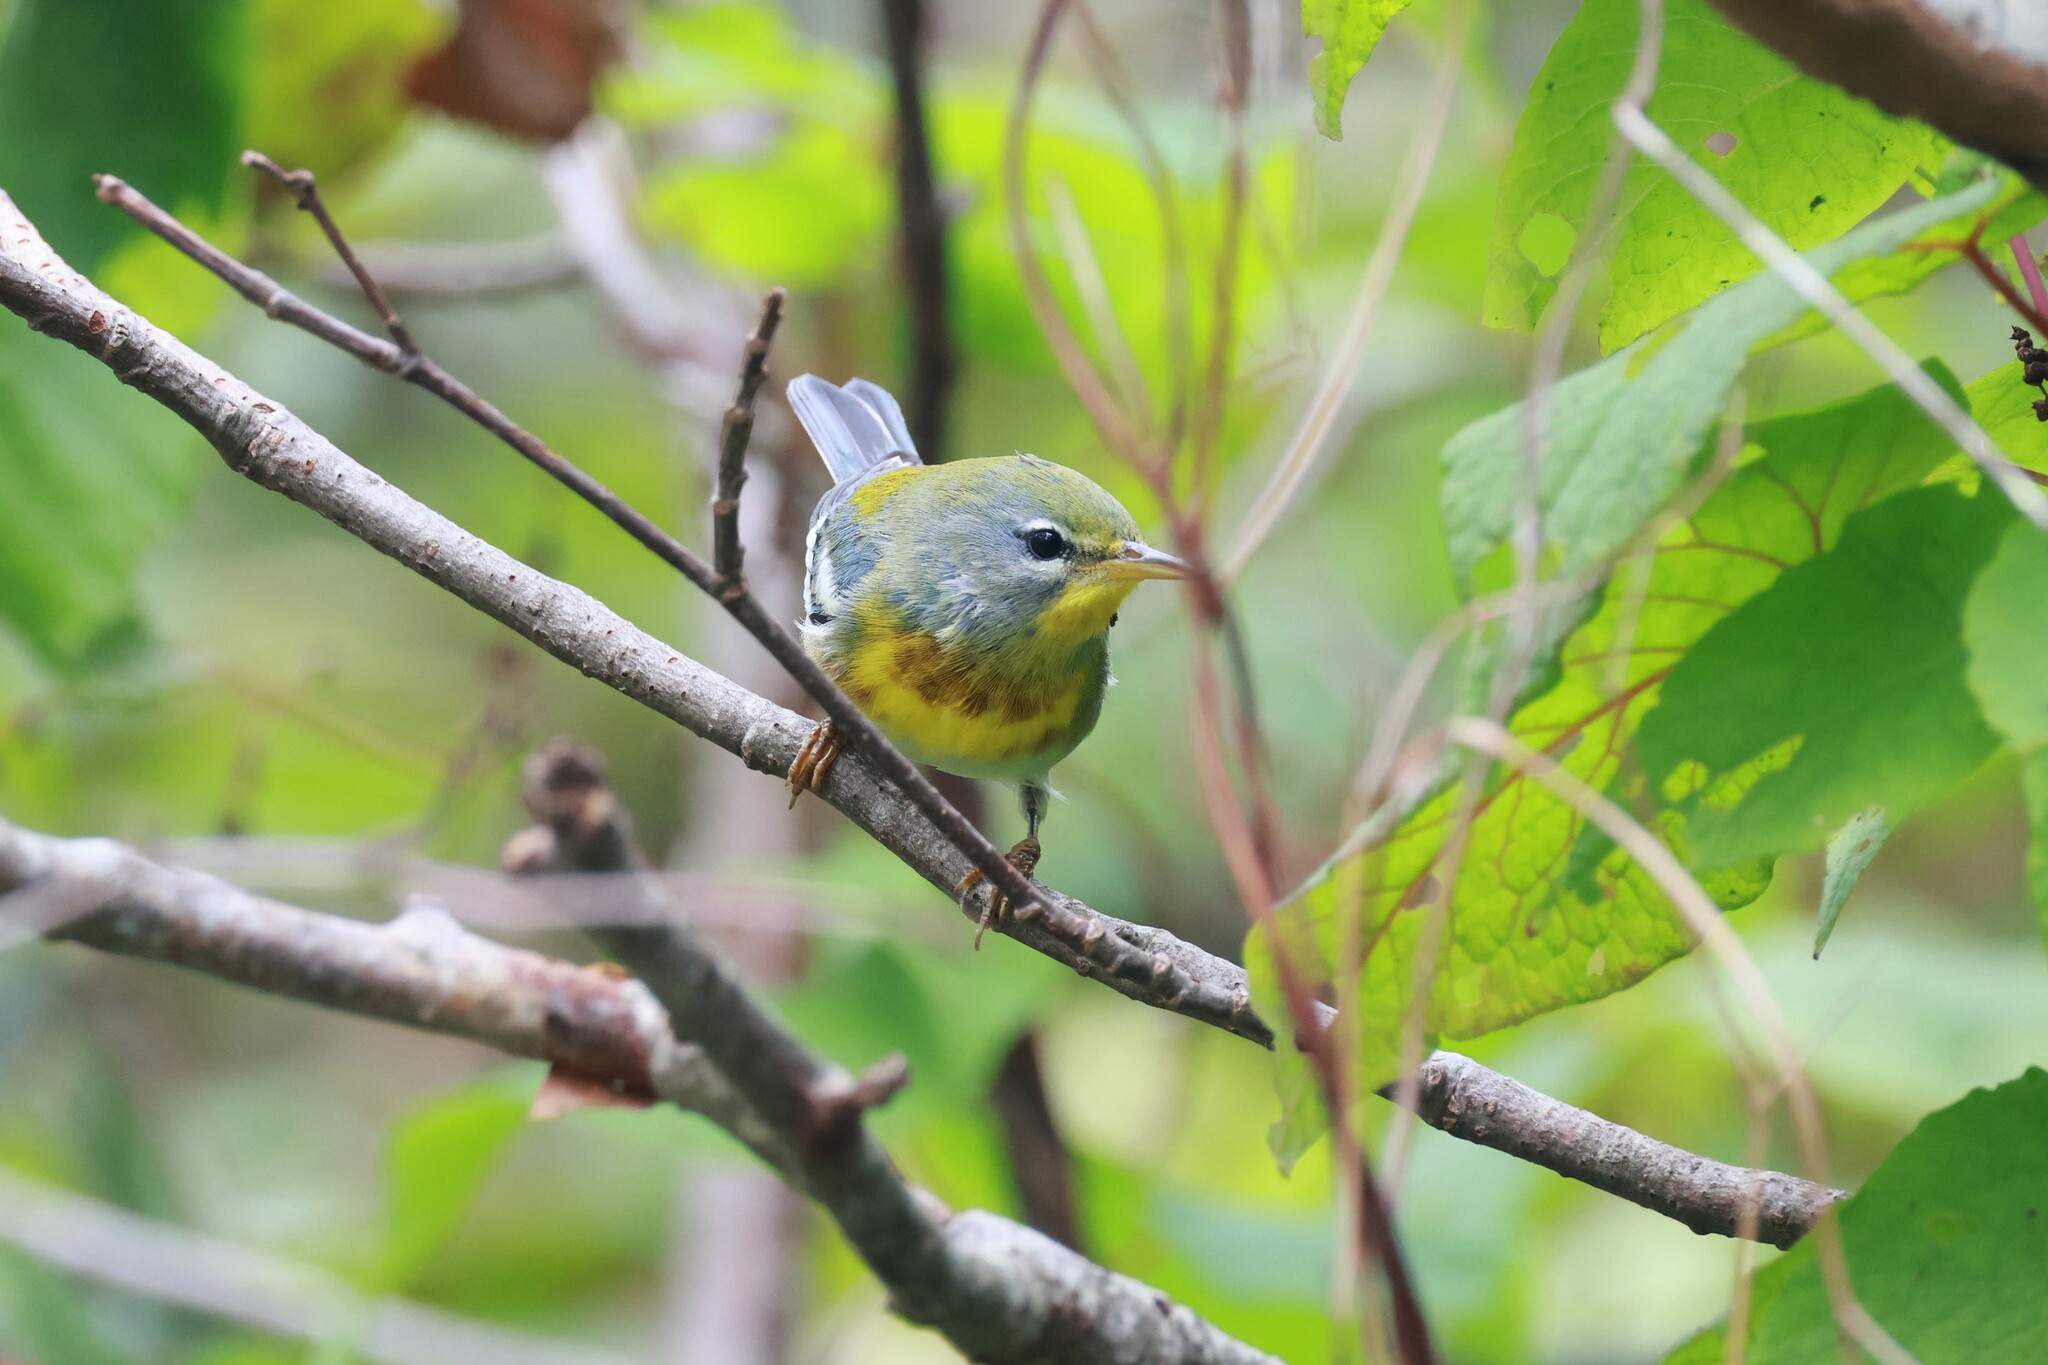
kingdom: Animalia
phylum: Chordata
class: Aves
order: Passeriformes
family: Parulidae
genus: Setophaga
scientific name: Setophaga americana
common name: Northern parula
